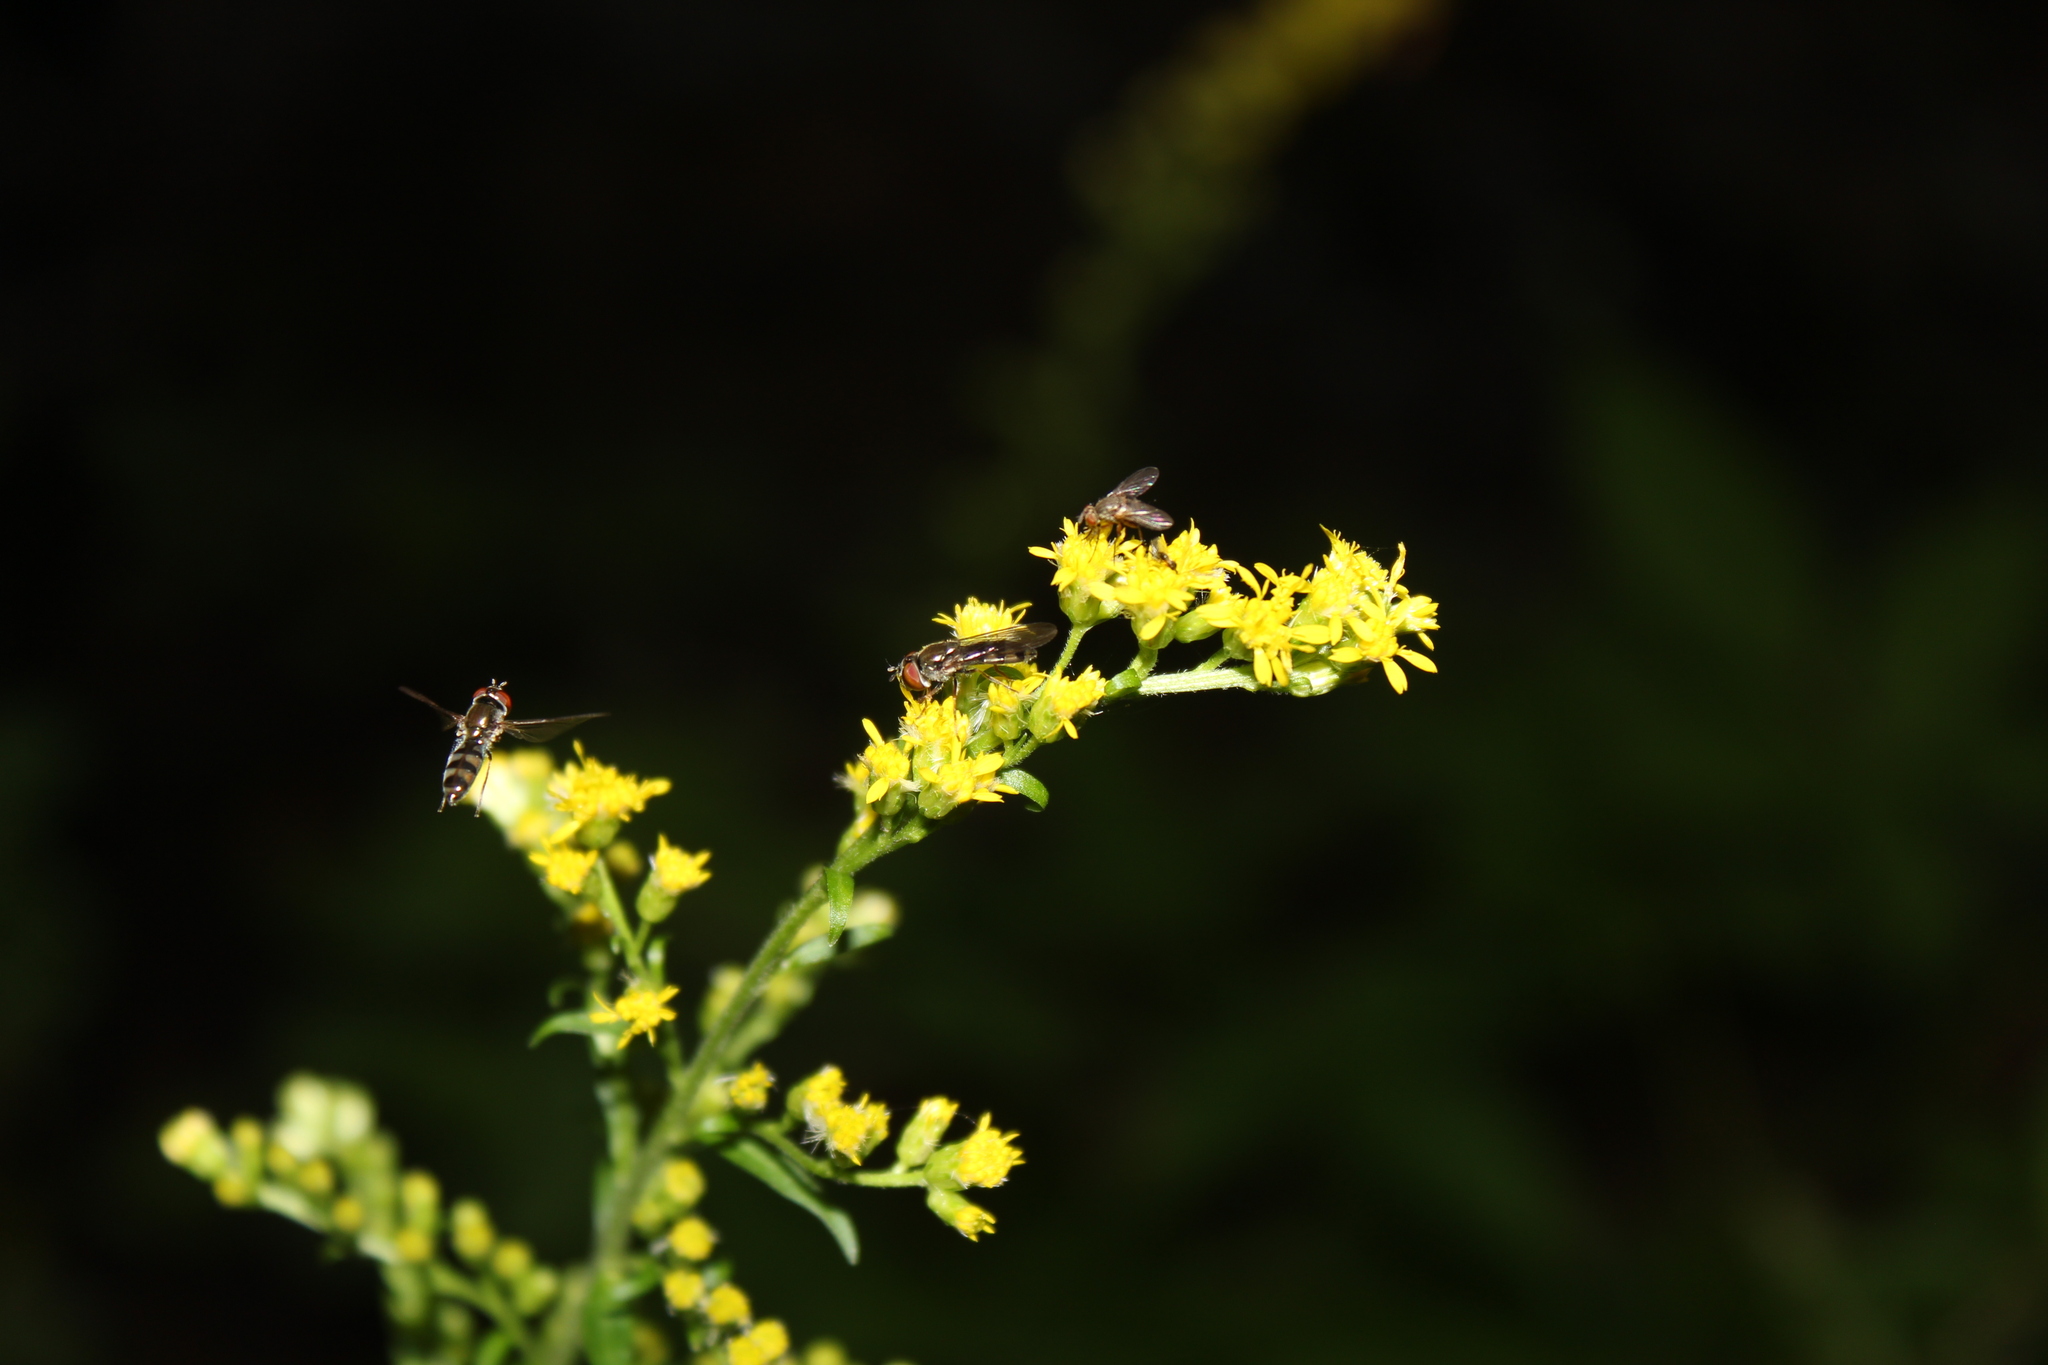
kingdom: Animalia
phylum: Arthropoda
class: Insecta
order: Diptera
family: Syrphidae
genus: Platycheirus
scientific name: Platycheirus
